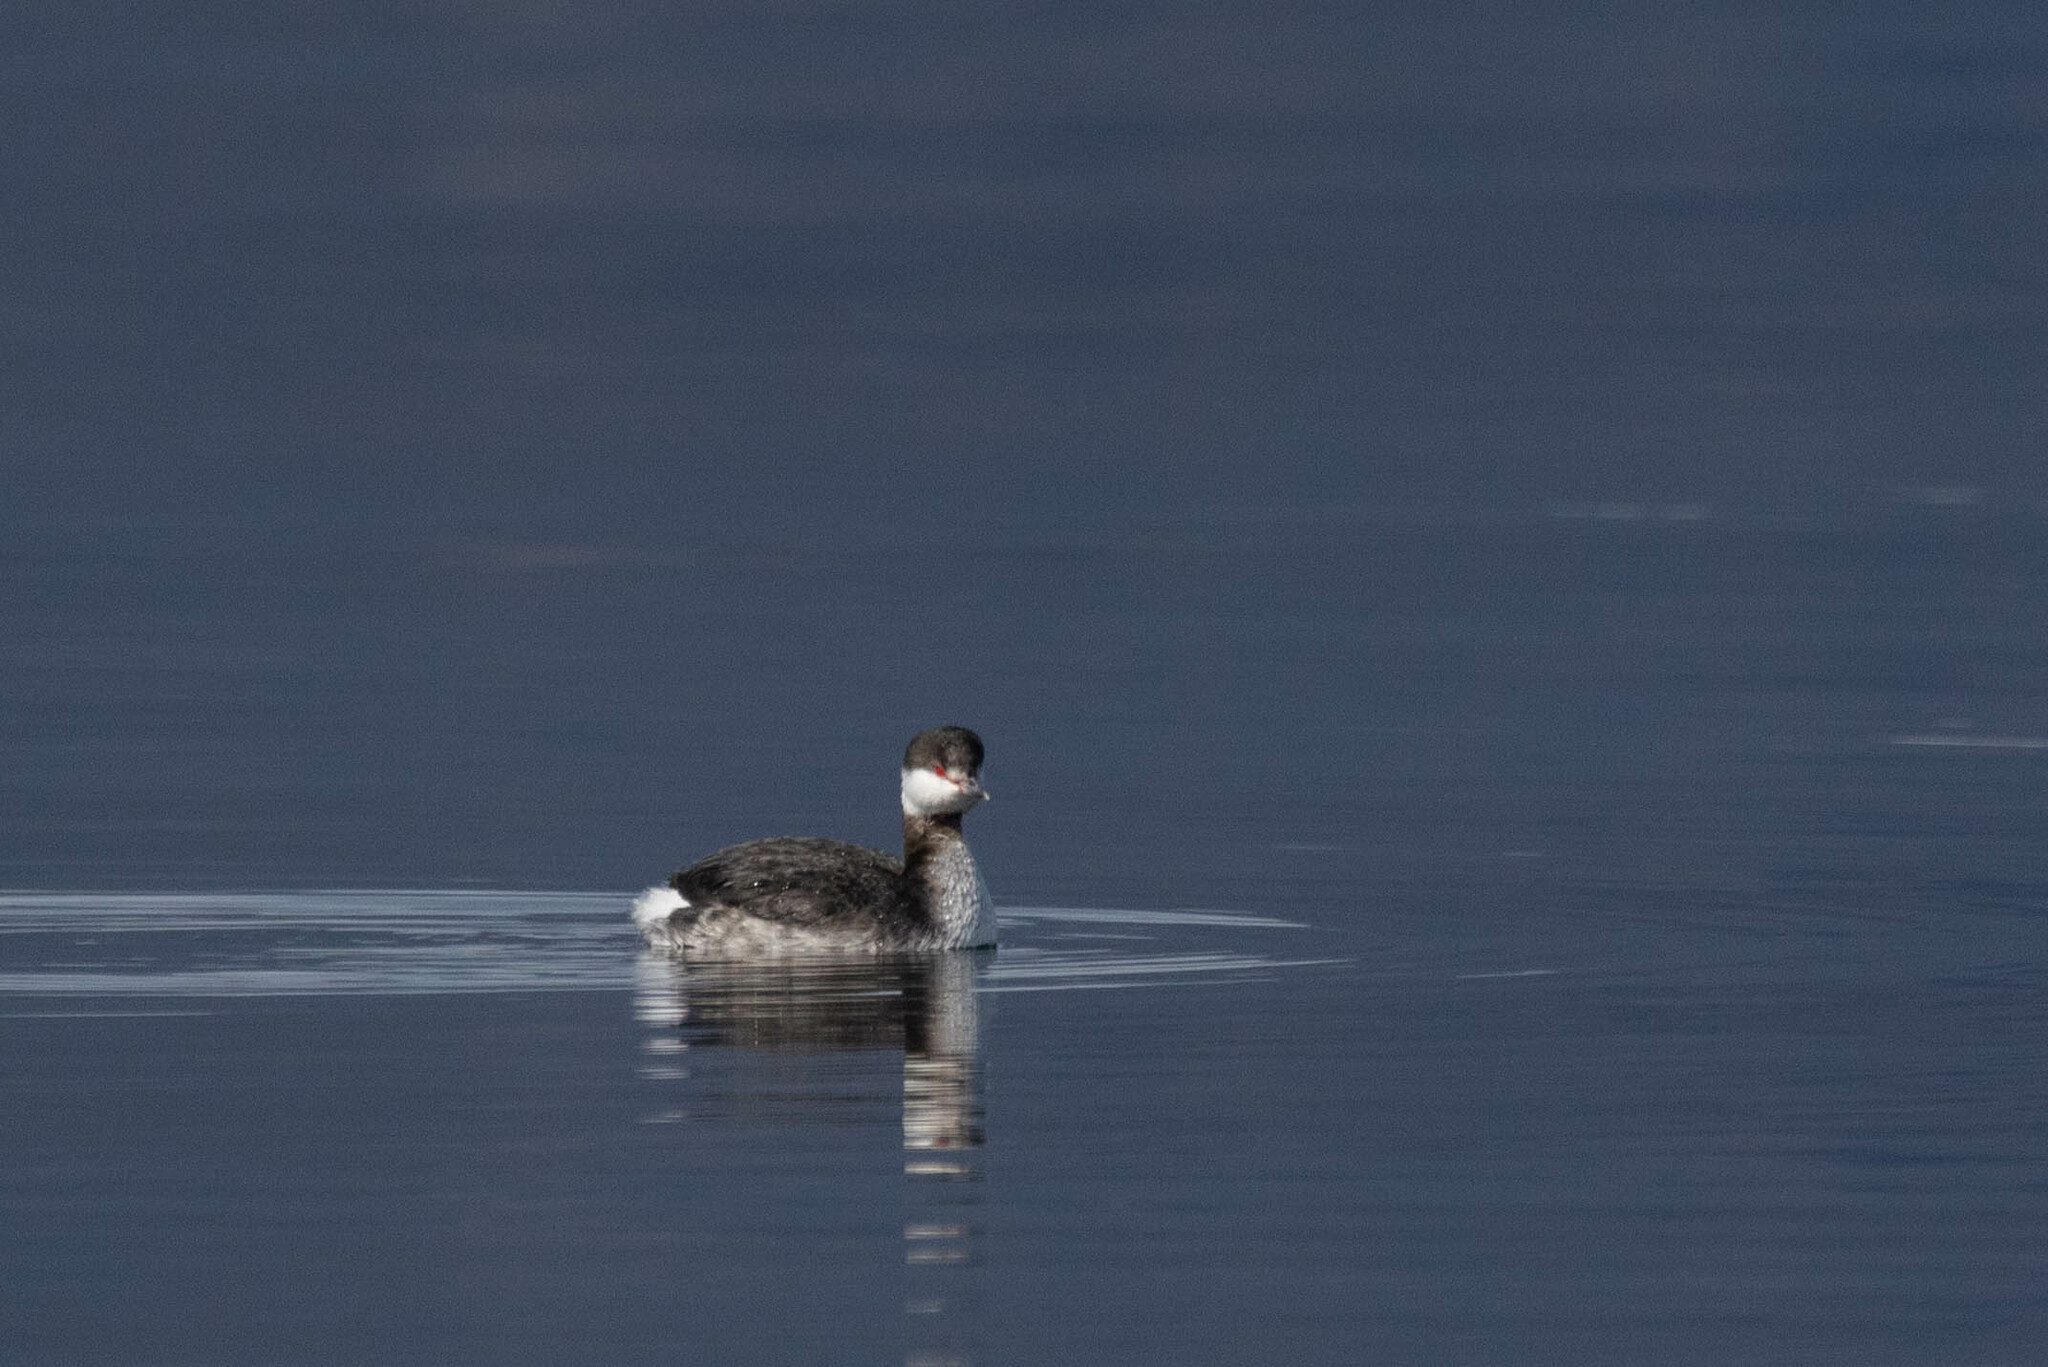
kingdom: Animalia
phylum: Chordata
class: Aves
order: Podicipediformes
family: Podicipedidae
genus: Podiceps
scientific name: Podiceps auritus
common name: Horned grebe
